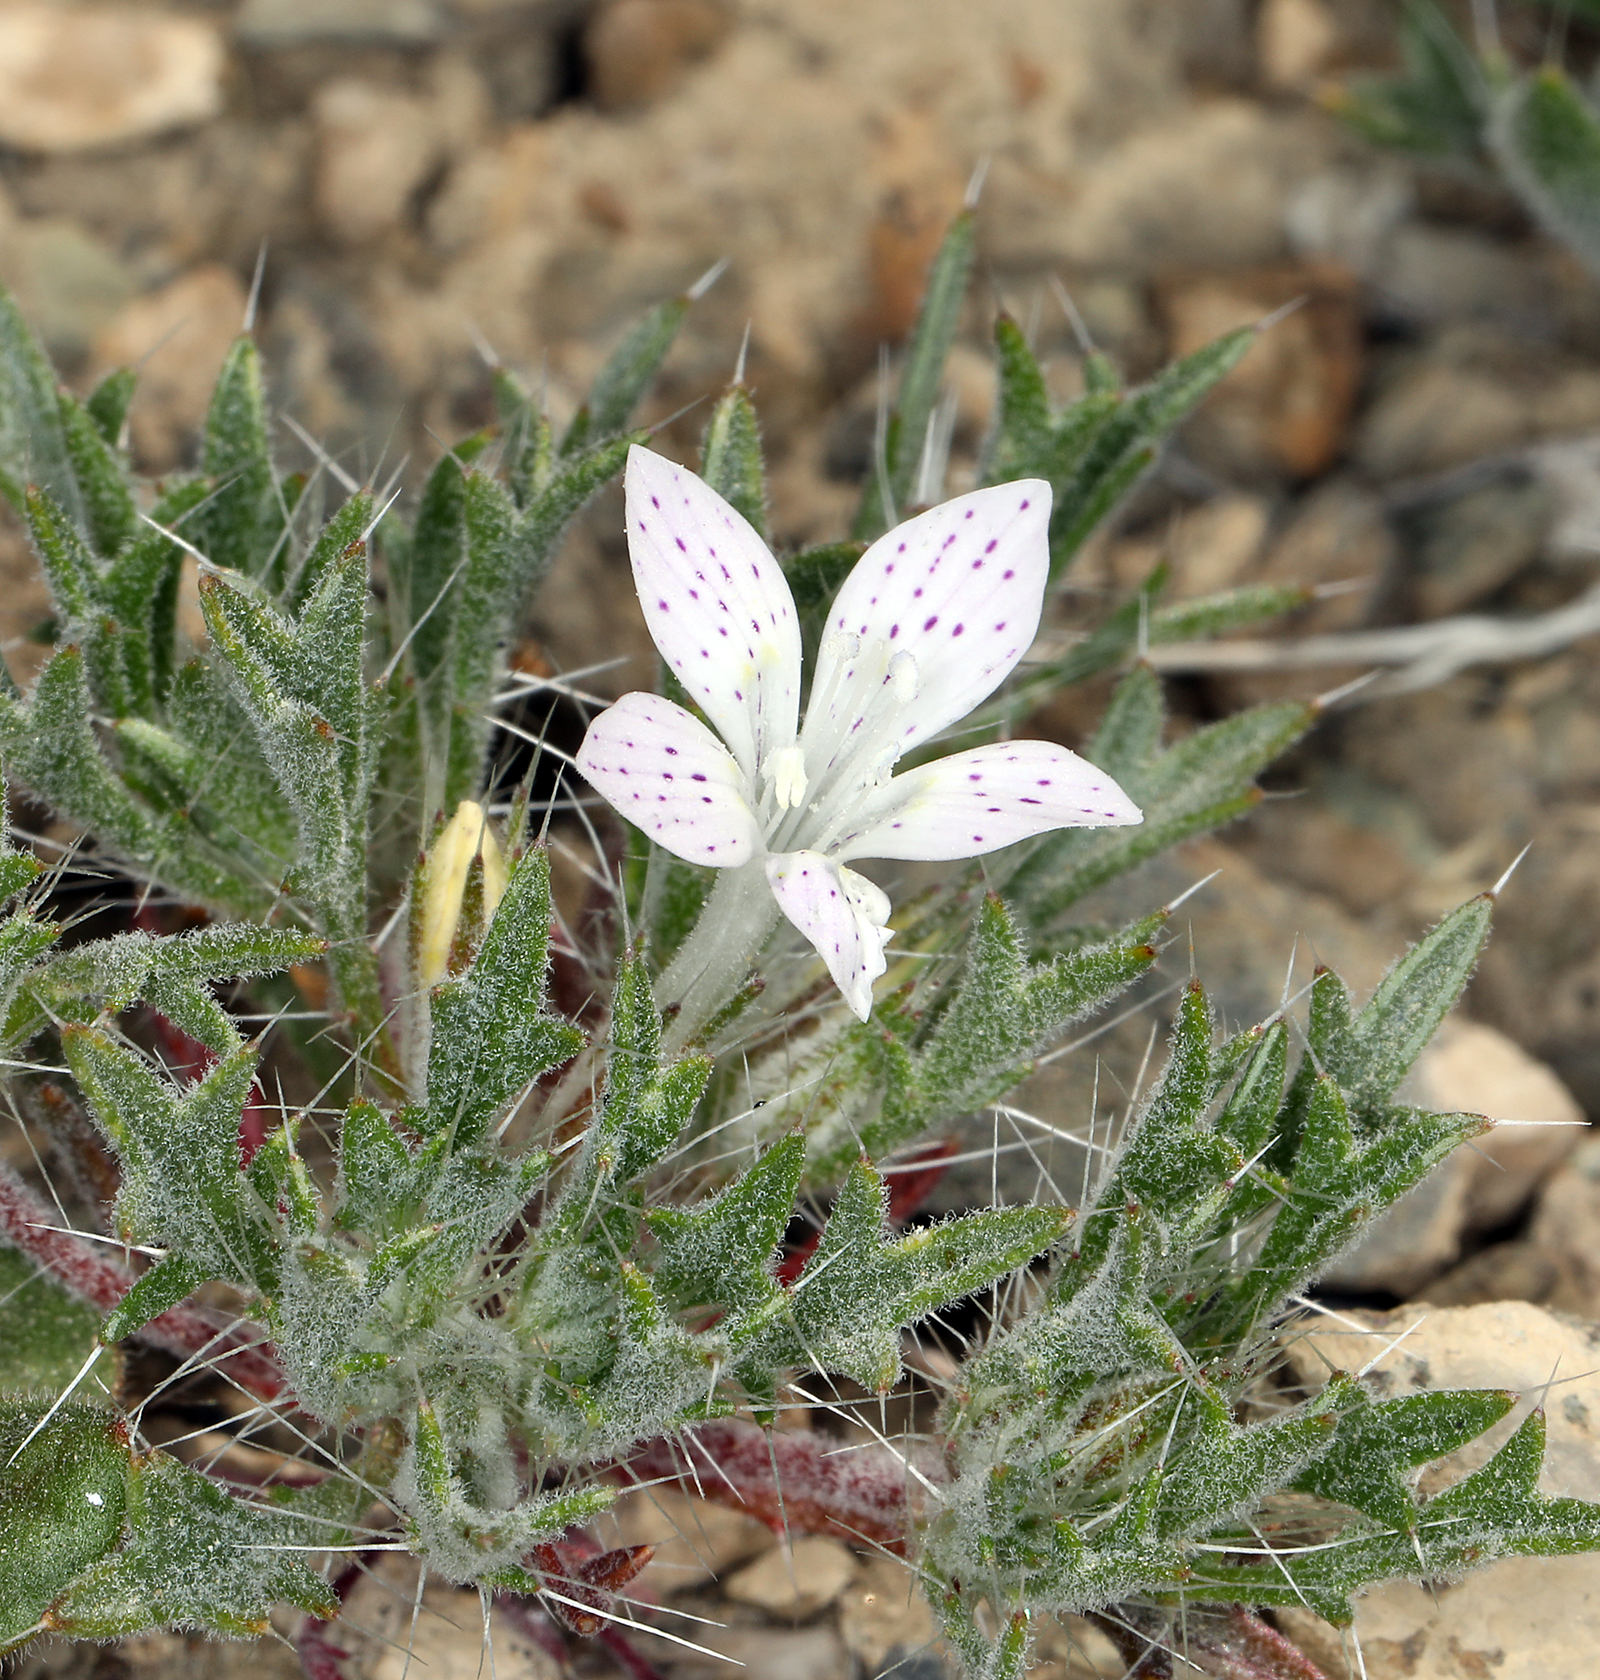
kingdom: Plantae
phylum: Tracheophyta
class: Magnoliopsida
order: Ericales
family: Polemoniaceae
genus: Langloisia
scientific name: Langloisia setosissima
